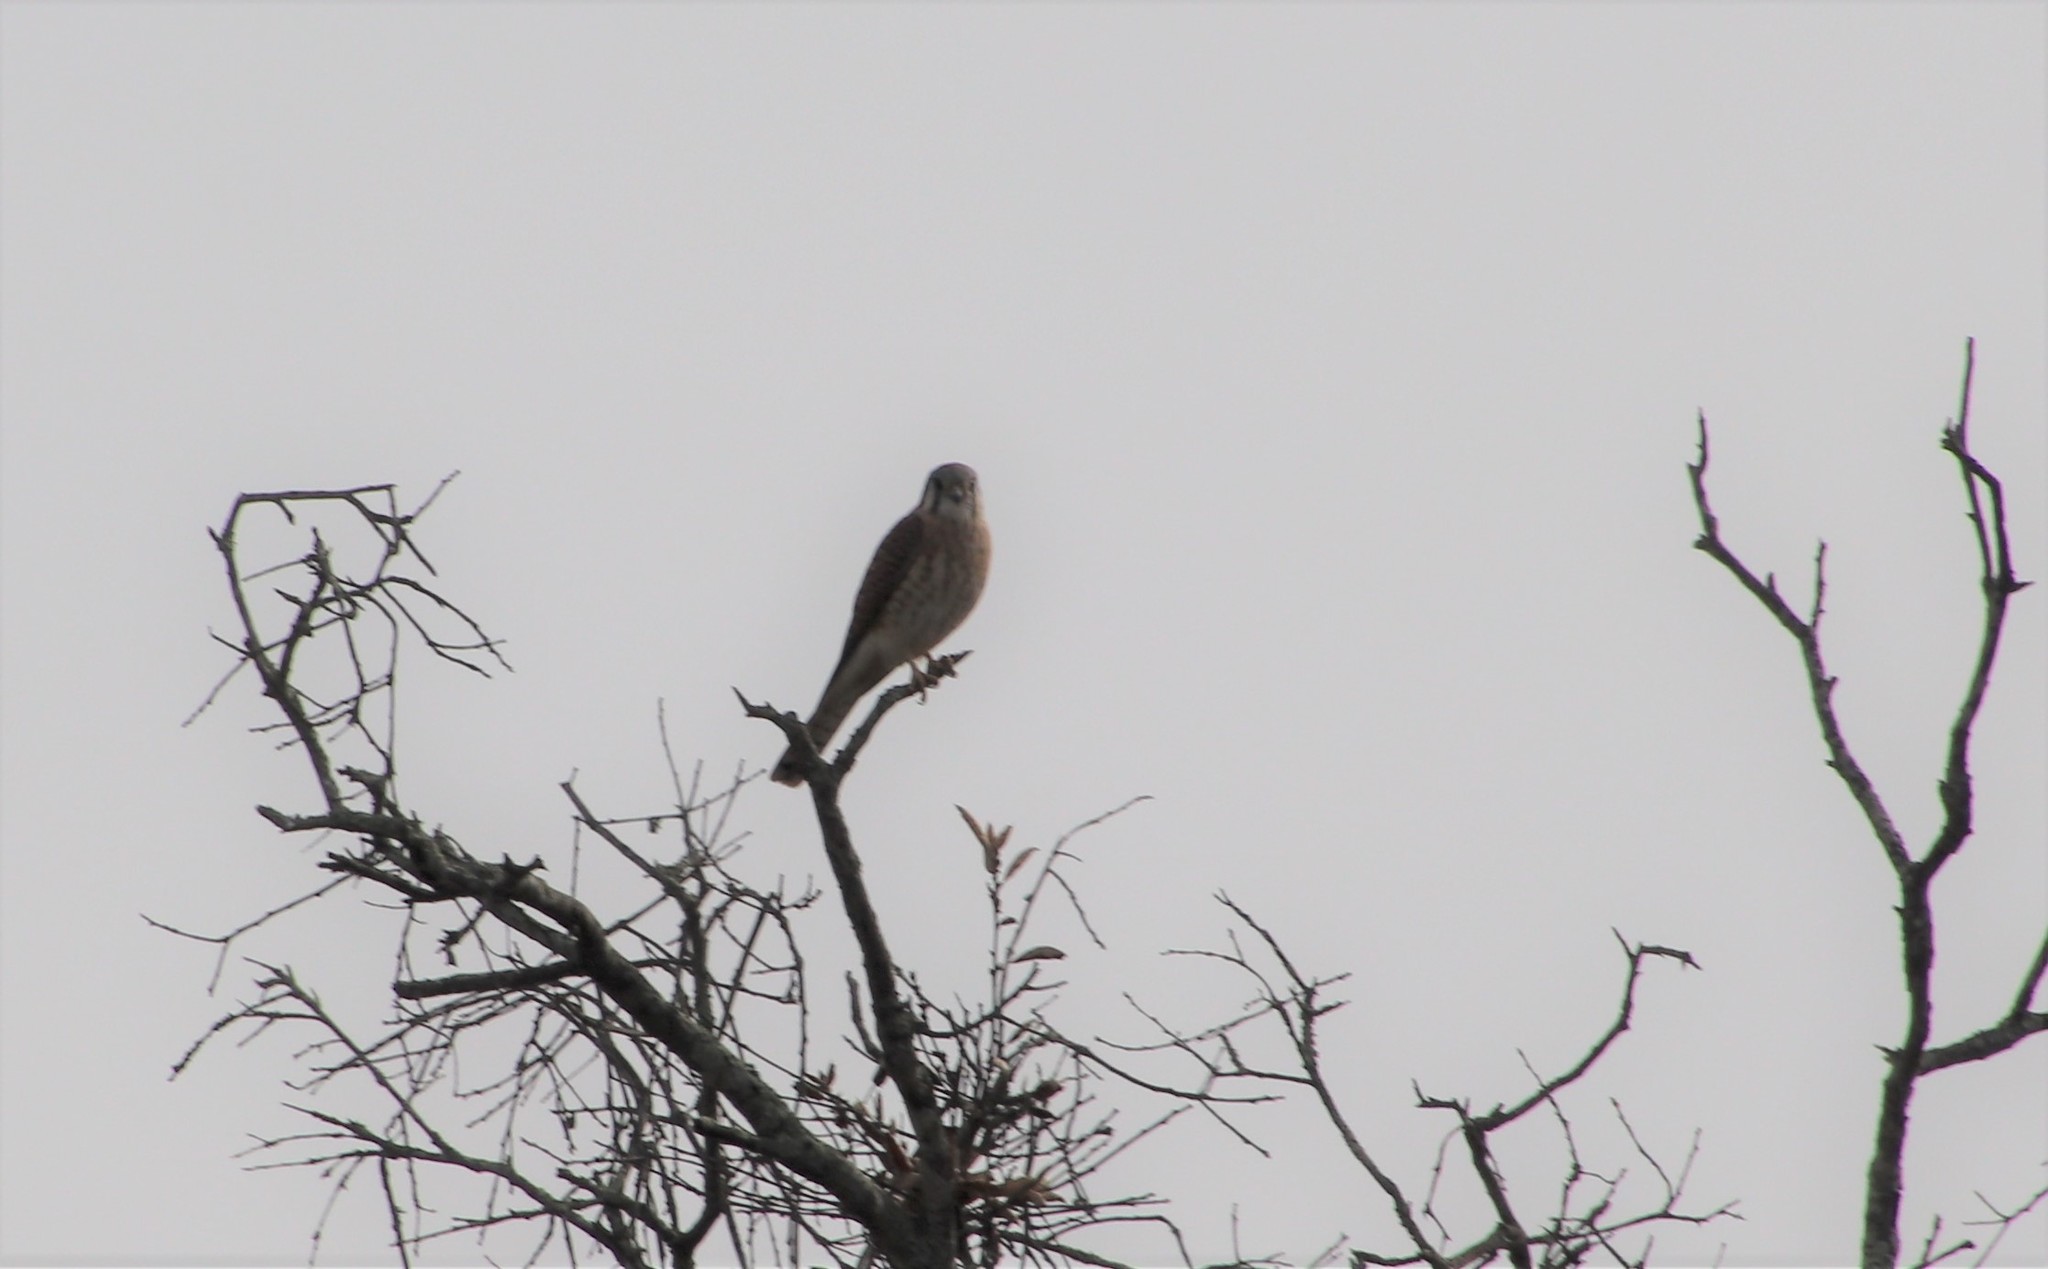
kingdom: Animalia
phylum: Chordata
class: Aves
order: Falconiformes
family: Falconidae
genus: Falco
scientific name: Falco sparverius
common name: American kestrel
